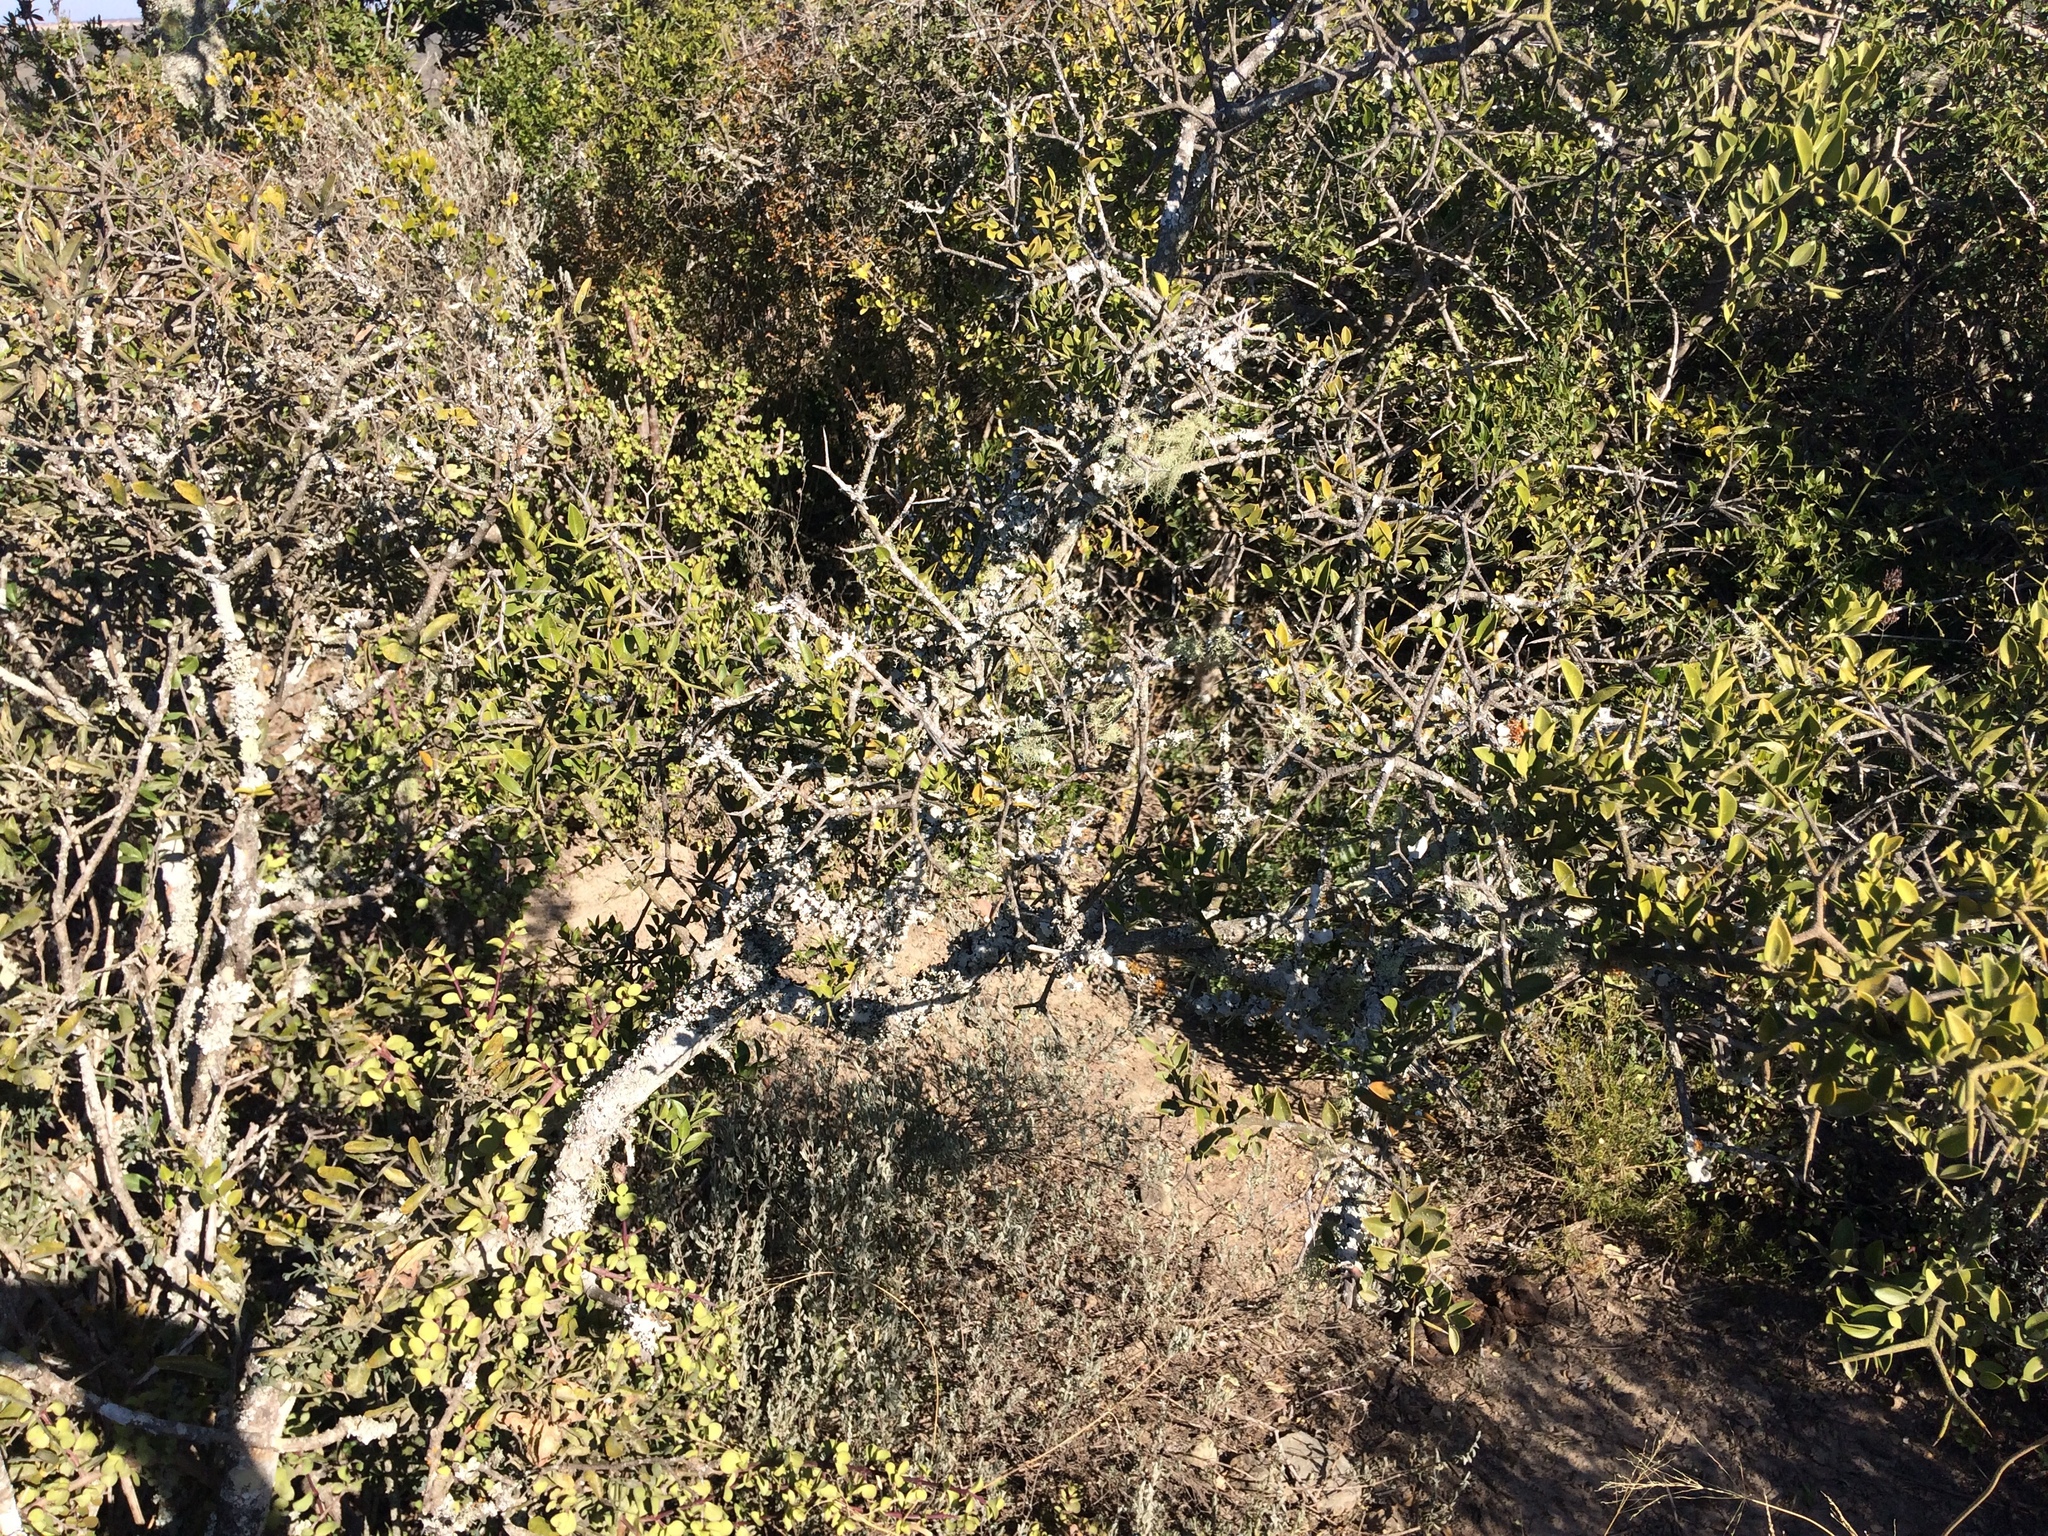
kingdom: Plantae
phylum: Tracheophyta
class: Magnoliopsida
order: Gentianales
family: Apocynaceae
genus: Carissa
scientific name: Carissa bispinosa
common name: Forest num-num
